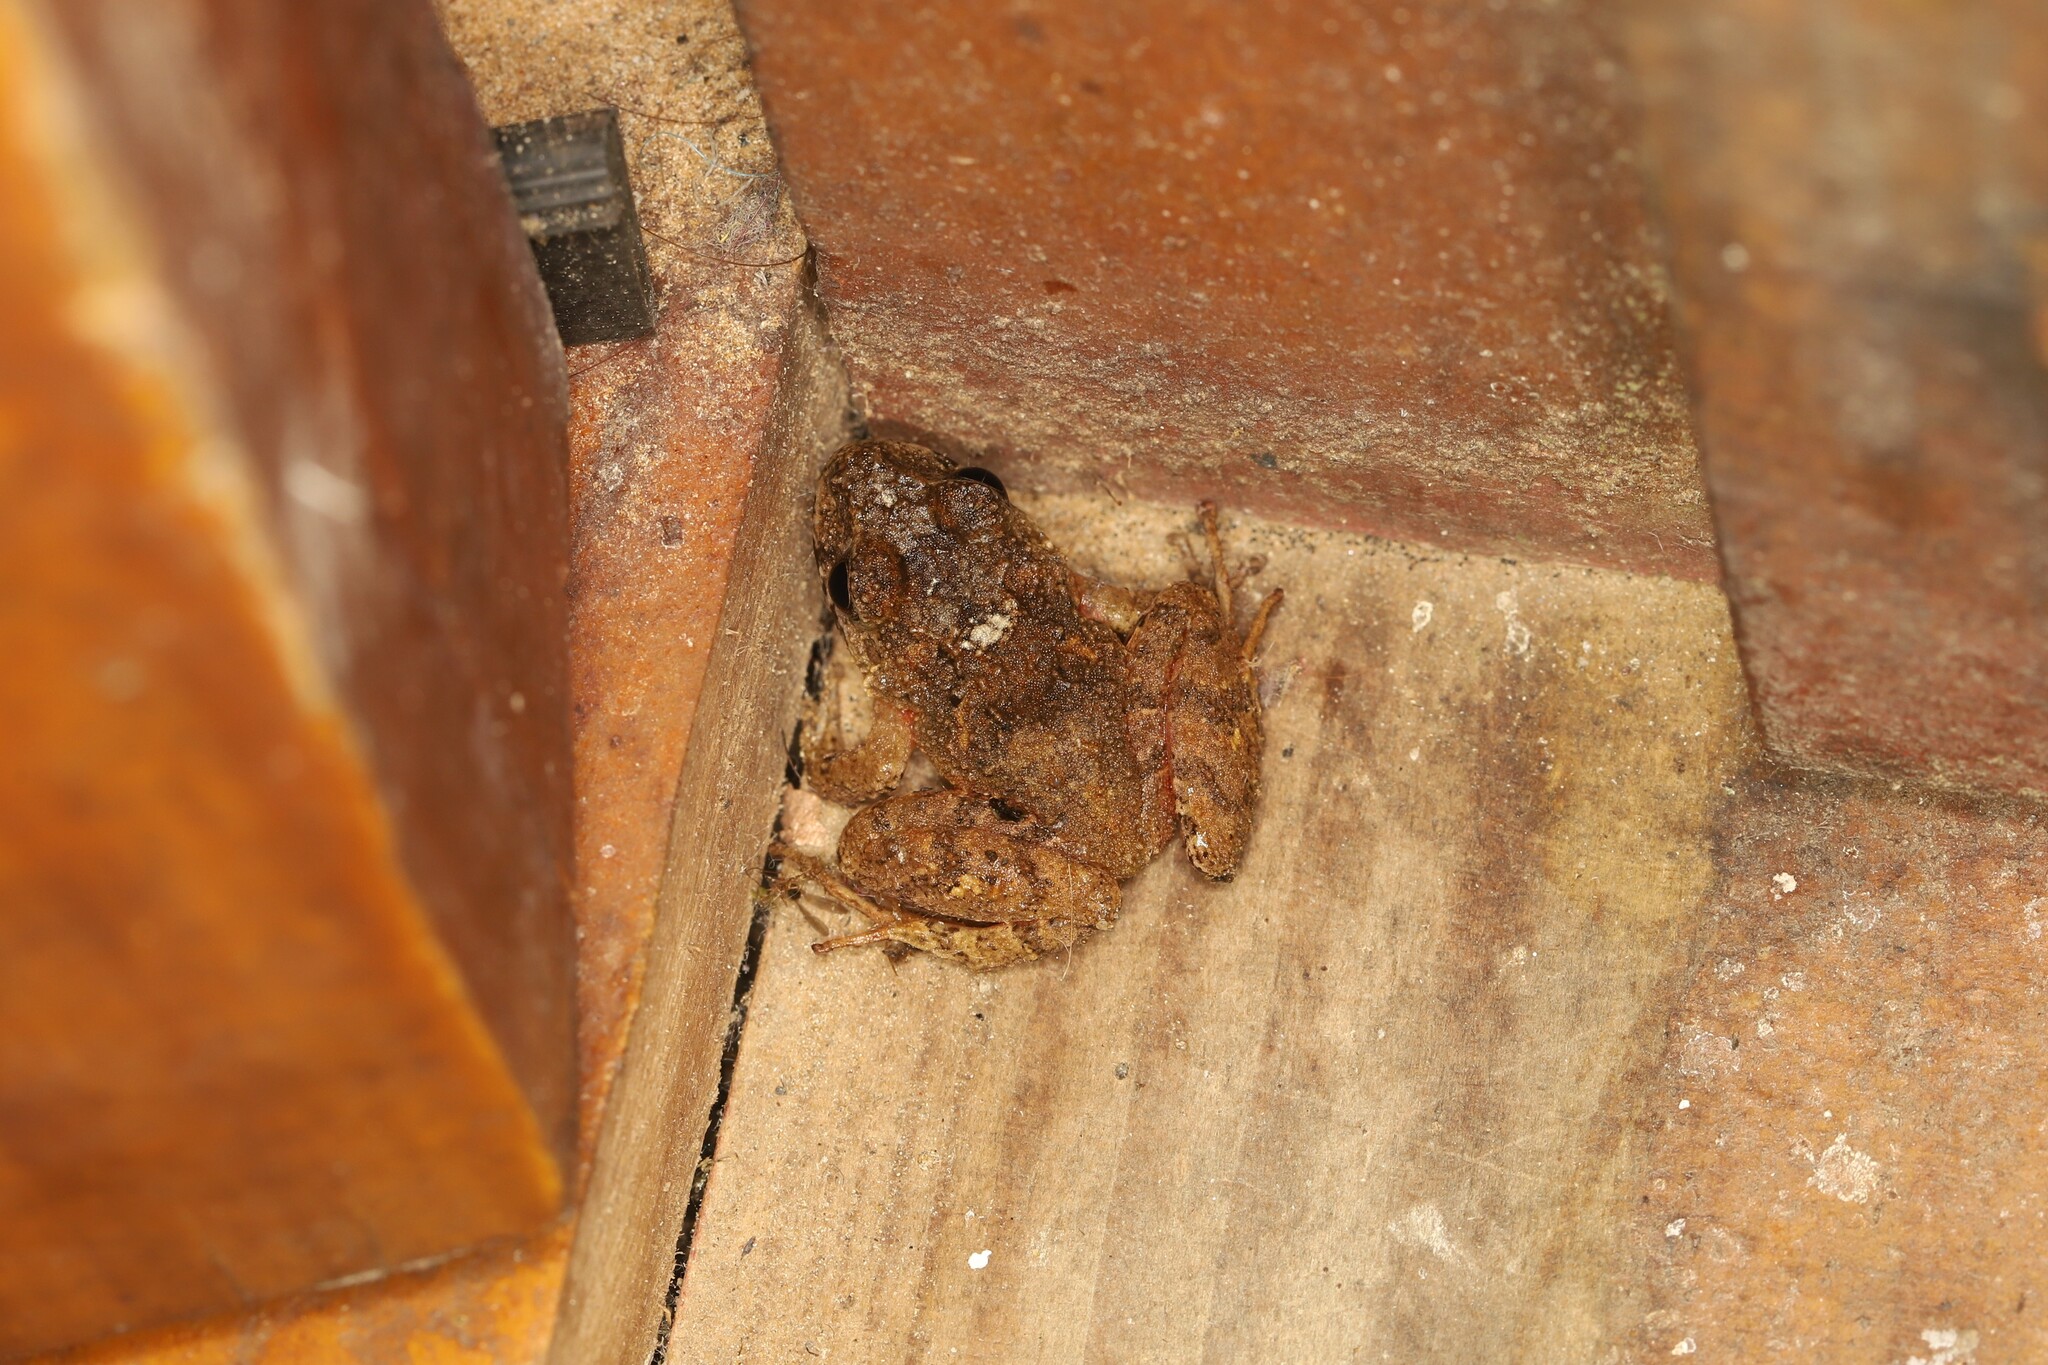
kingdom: Animalia
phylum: Chordata
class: Amphibia
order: Anura
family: Craugastoridae
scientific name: Craugastoridae
